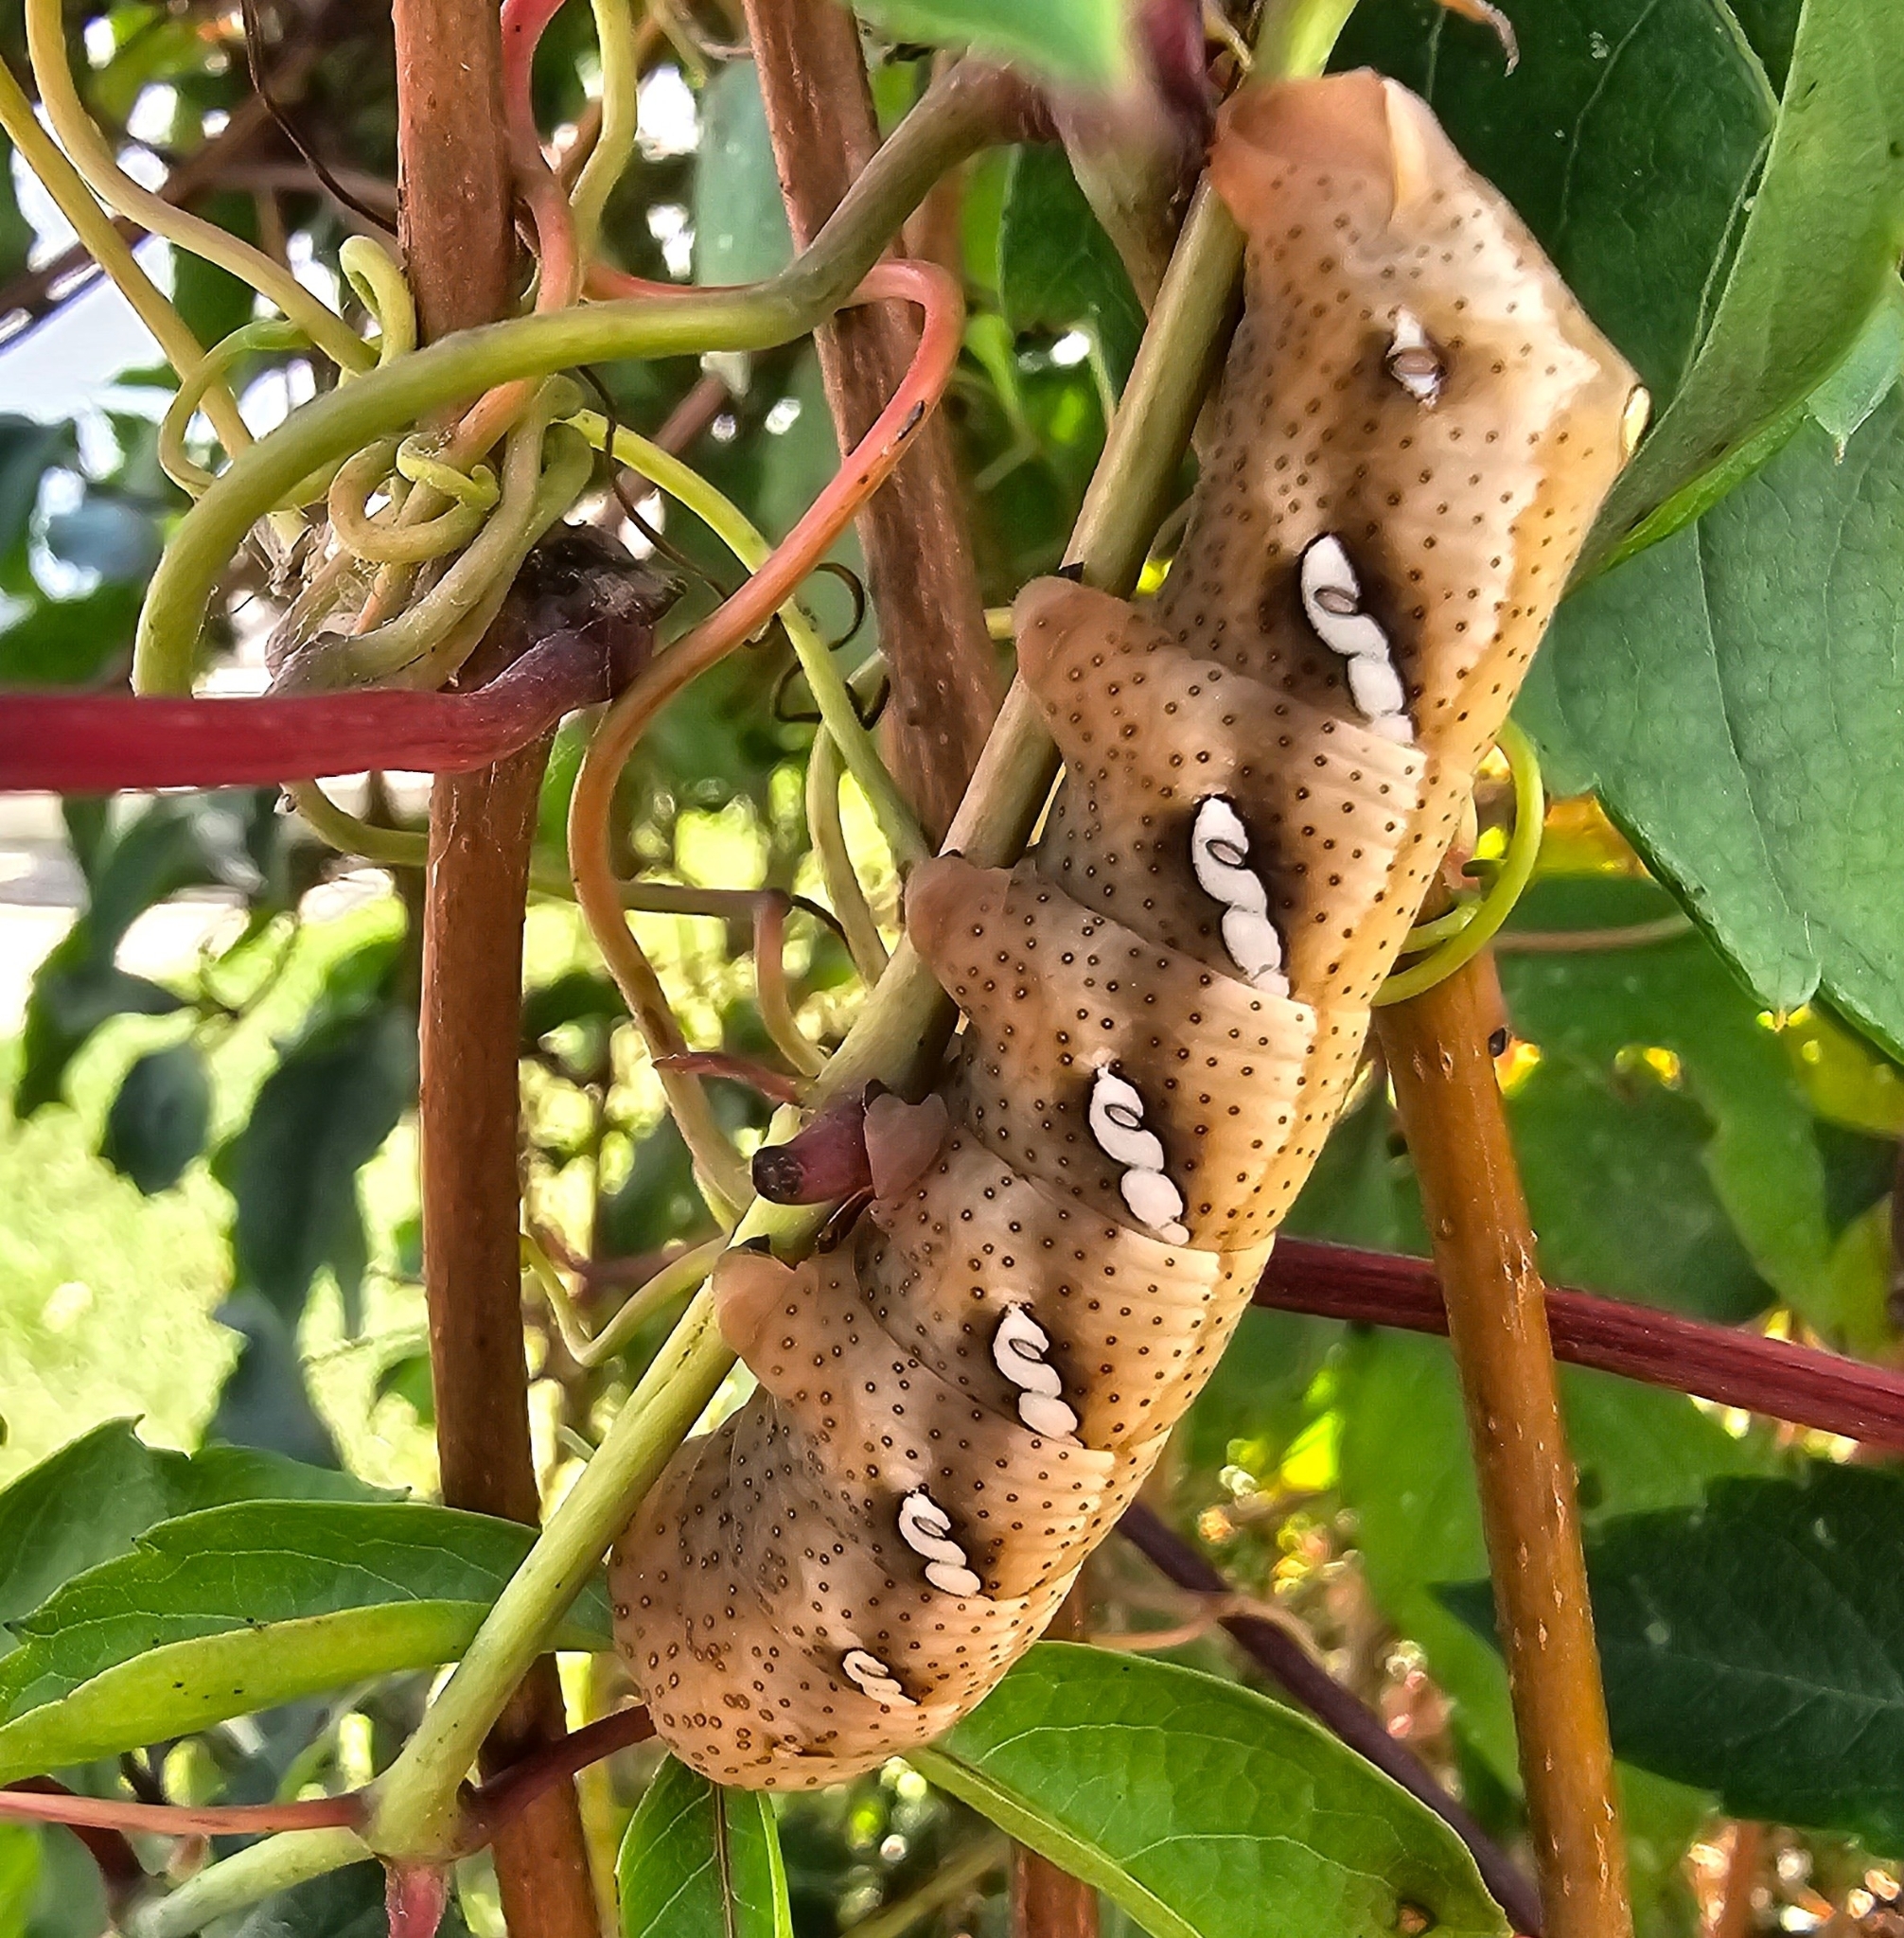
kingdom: Animalia
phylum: Arthropoda
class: Insecta
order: Lepidoptera
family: Sphingidae
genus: Eumorpha
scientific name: Eumorpha achemon
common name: Achemon sphinx
